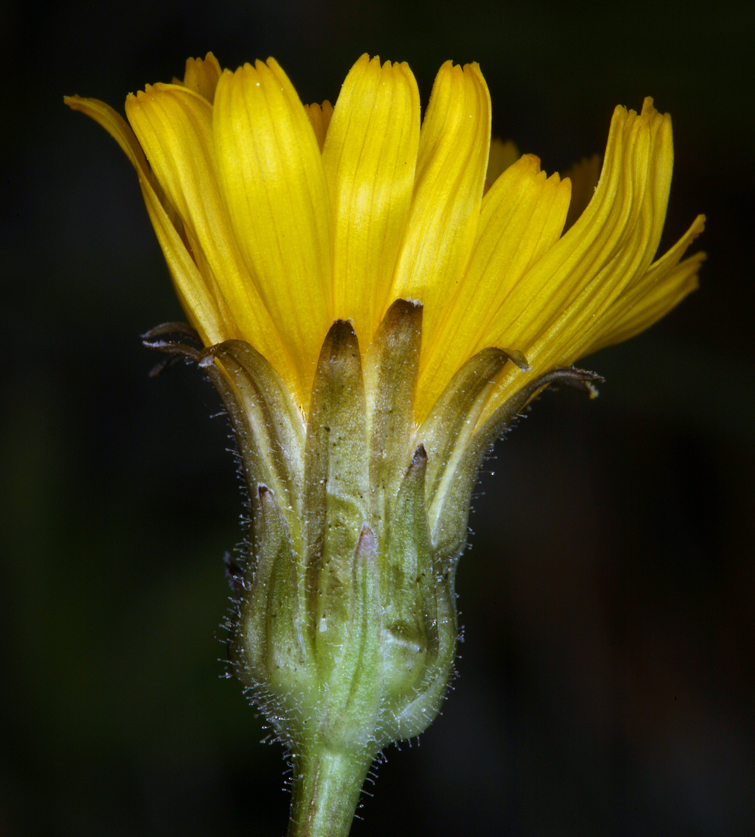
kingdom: Plantae
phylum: Tracheophyta
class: Magnoliopsida
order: Asterales
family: Asteraceae
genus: Crepis
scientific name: Crepis runcinata
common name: Dandelion hawksbeard
